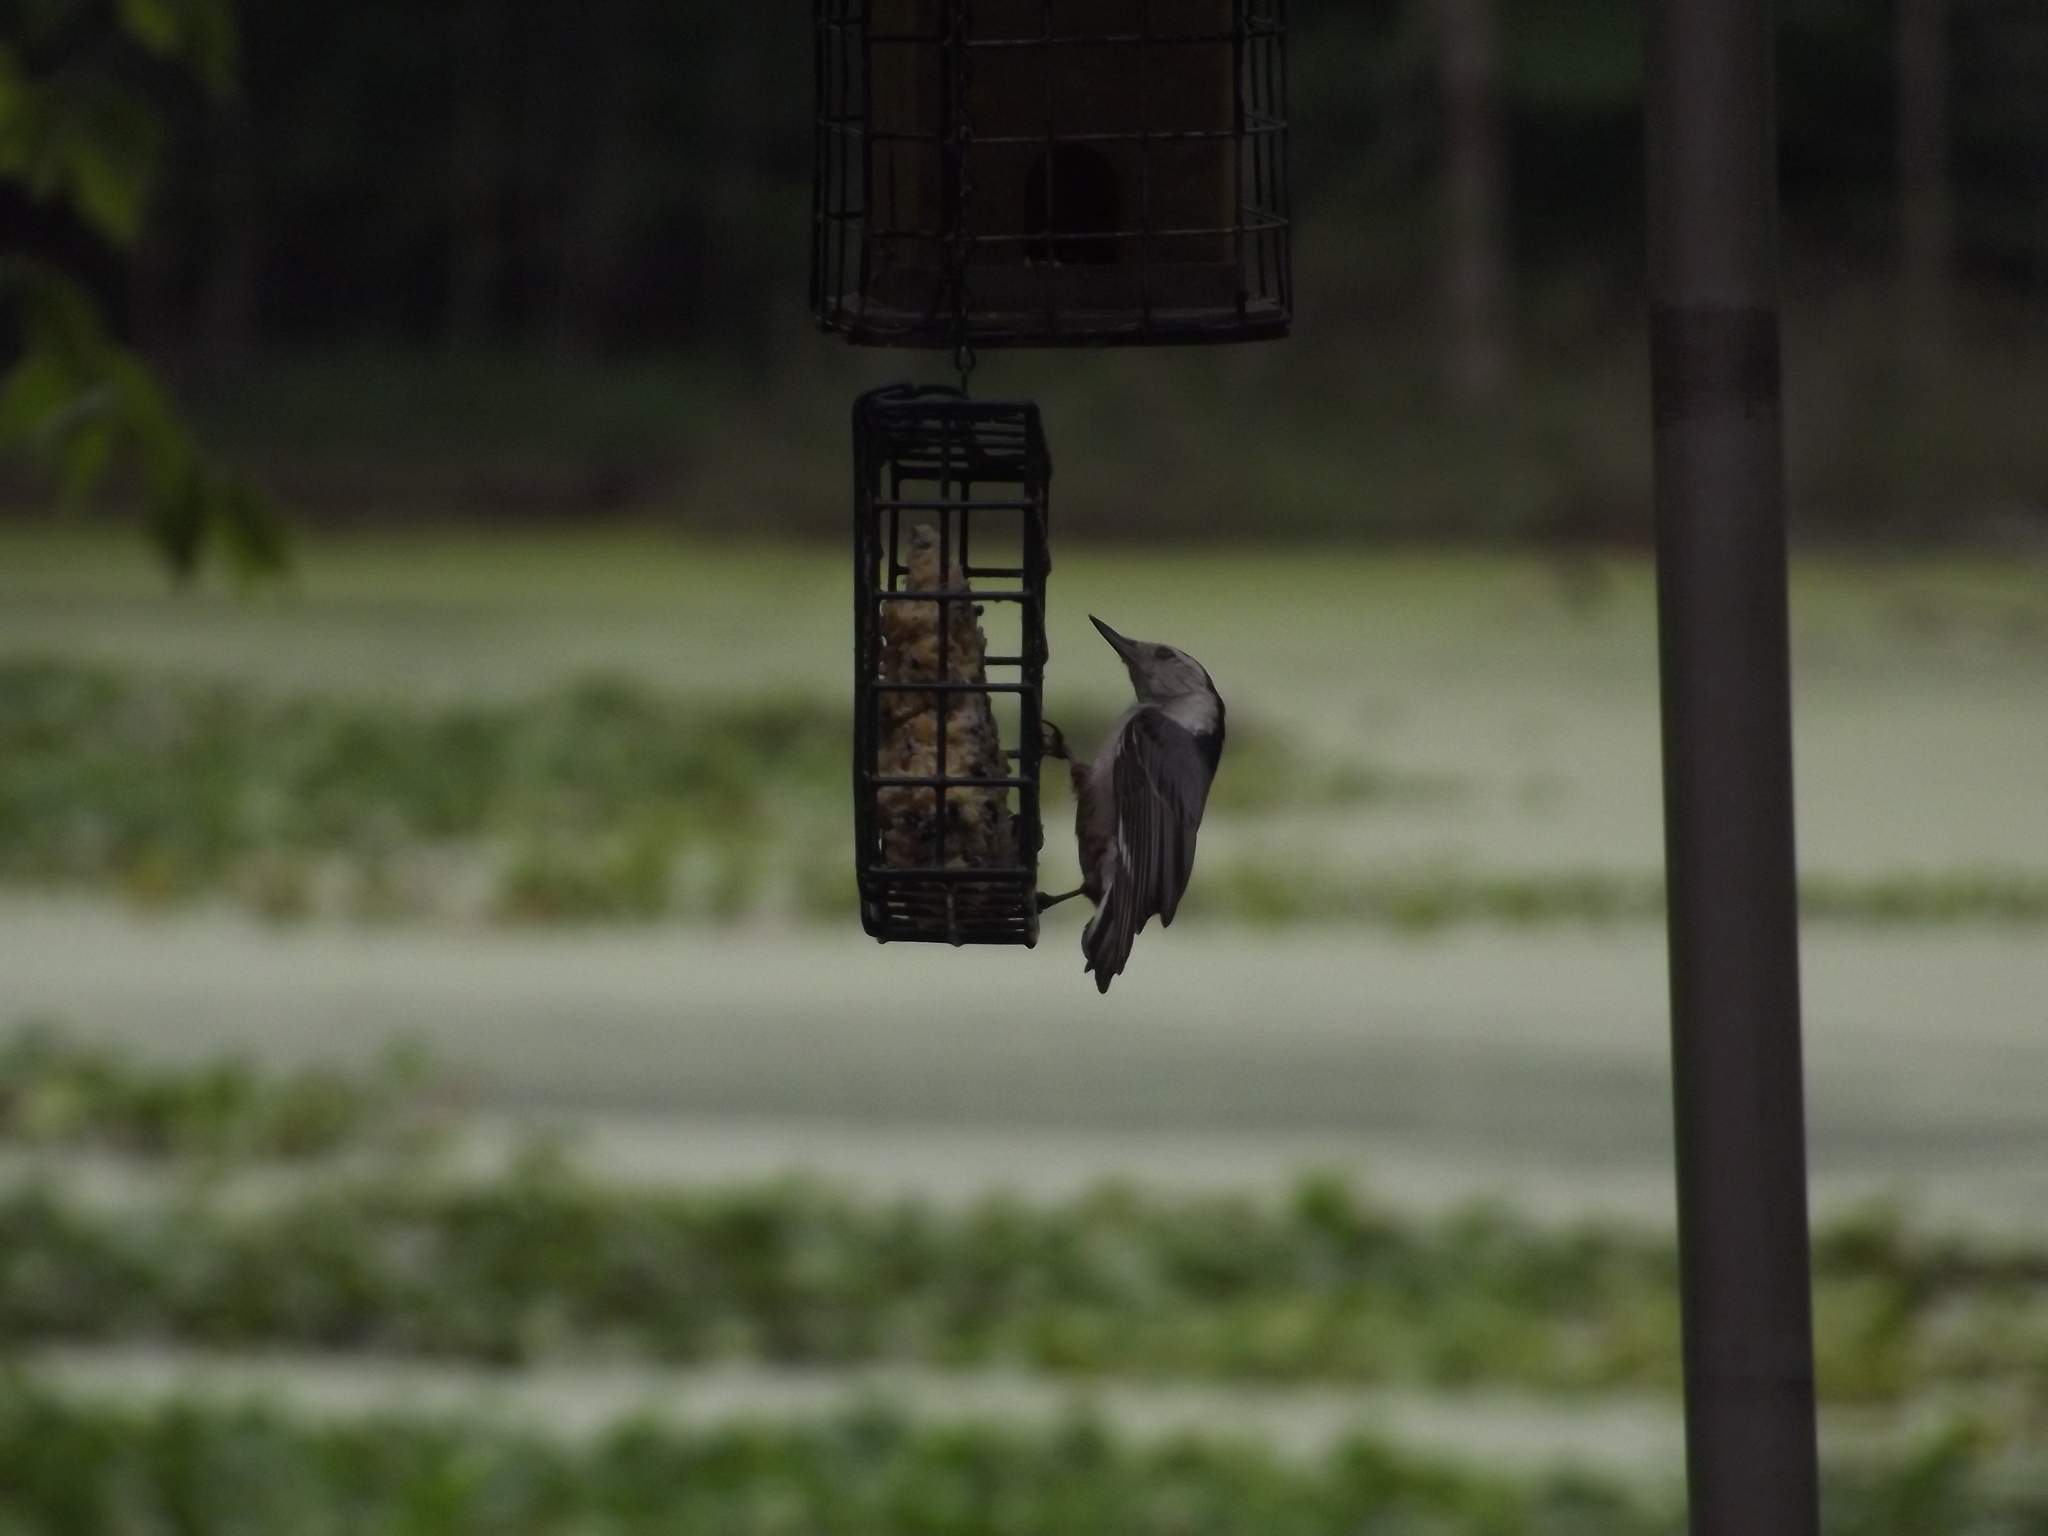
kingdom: Animalia
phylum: Chordata
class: Aves
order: Passeriformes
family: Sittidae
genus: Sitta
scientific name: Sitta carolinensis
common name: White-breasted nuthatch
